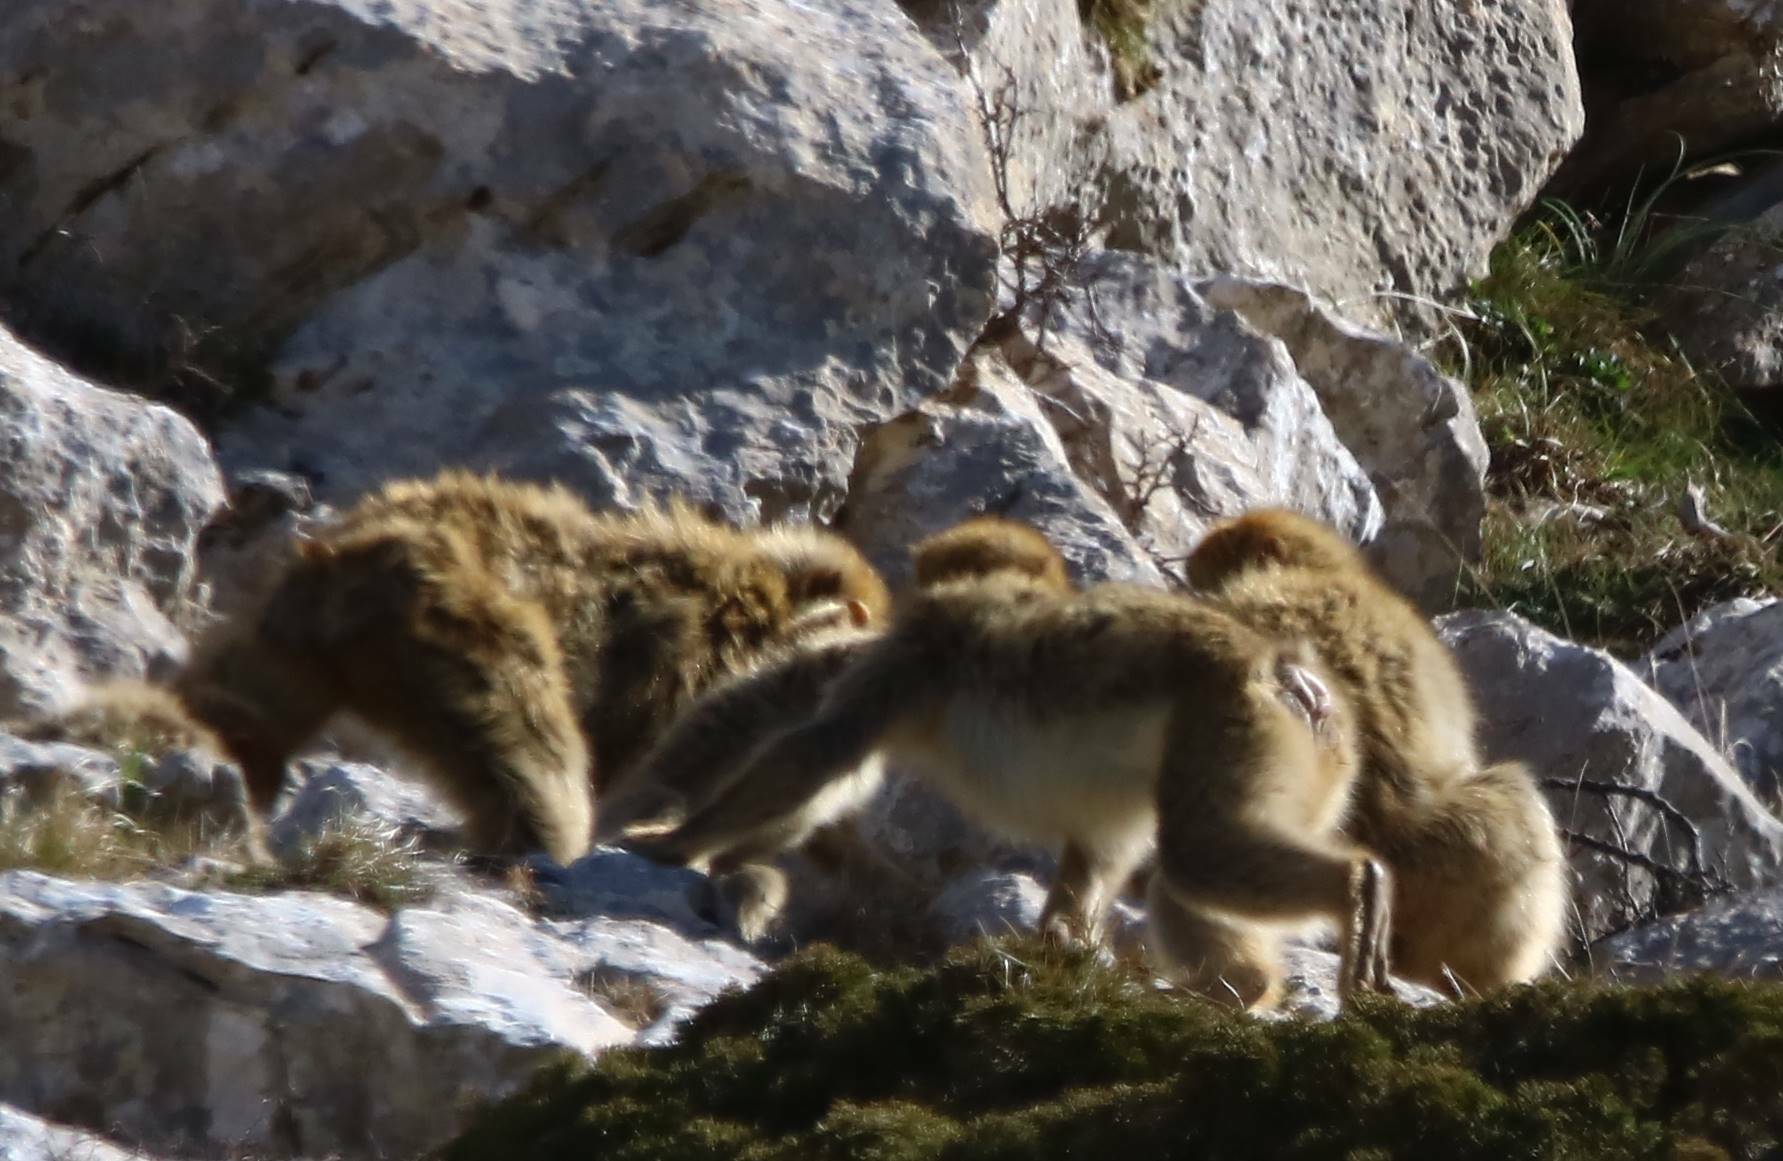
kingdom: Animalia
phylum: Chordata
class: Mammalia
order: Primates
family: Cercopithecidae
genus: Macaca
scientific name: Macaca sylvanus
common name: Barbary macaque
